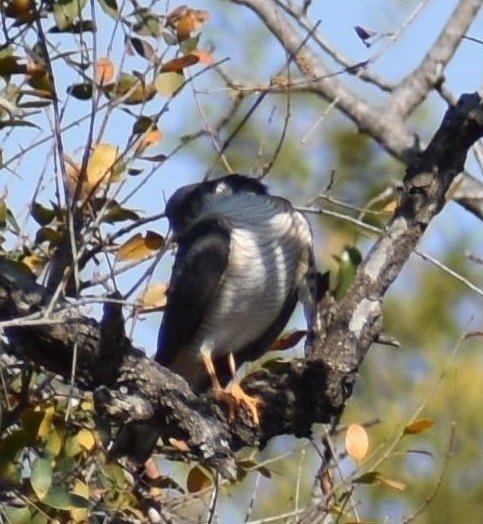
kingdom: Animalia
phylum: Chordata
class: Aves
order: Accipitriformes
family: Accipitridae
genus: Accipiter
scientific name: Accipiter minullus
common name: Little sparrowhawk
